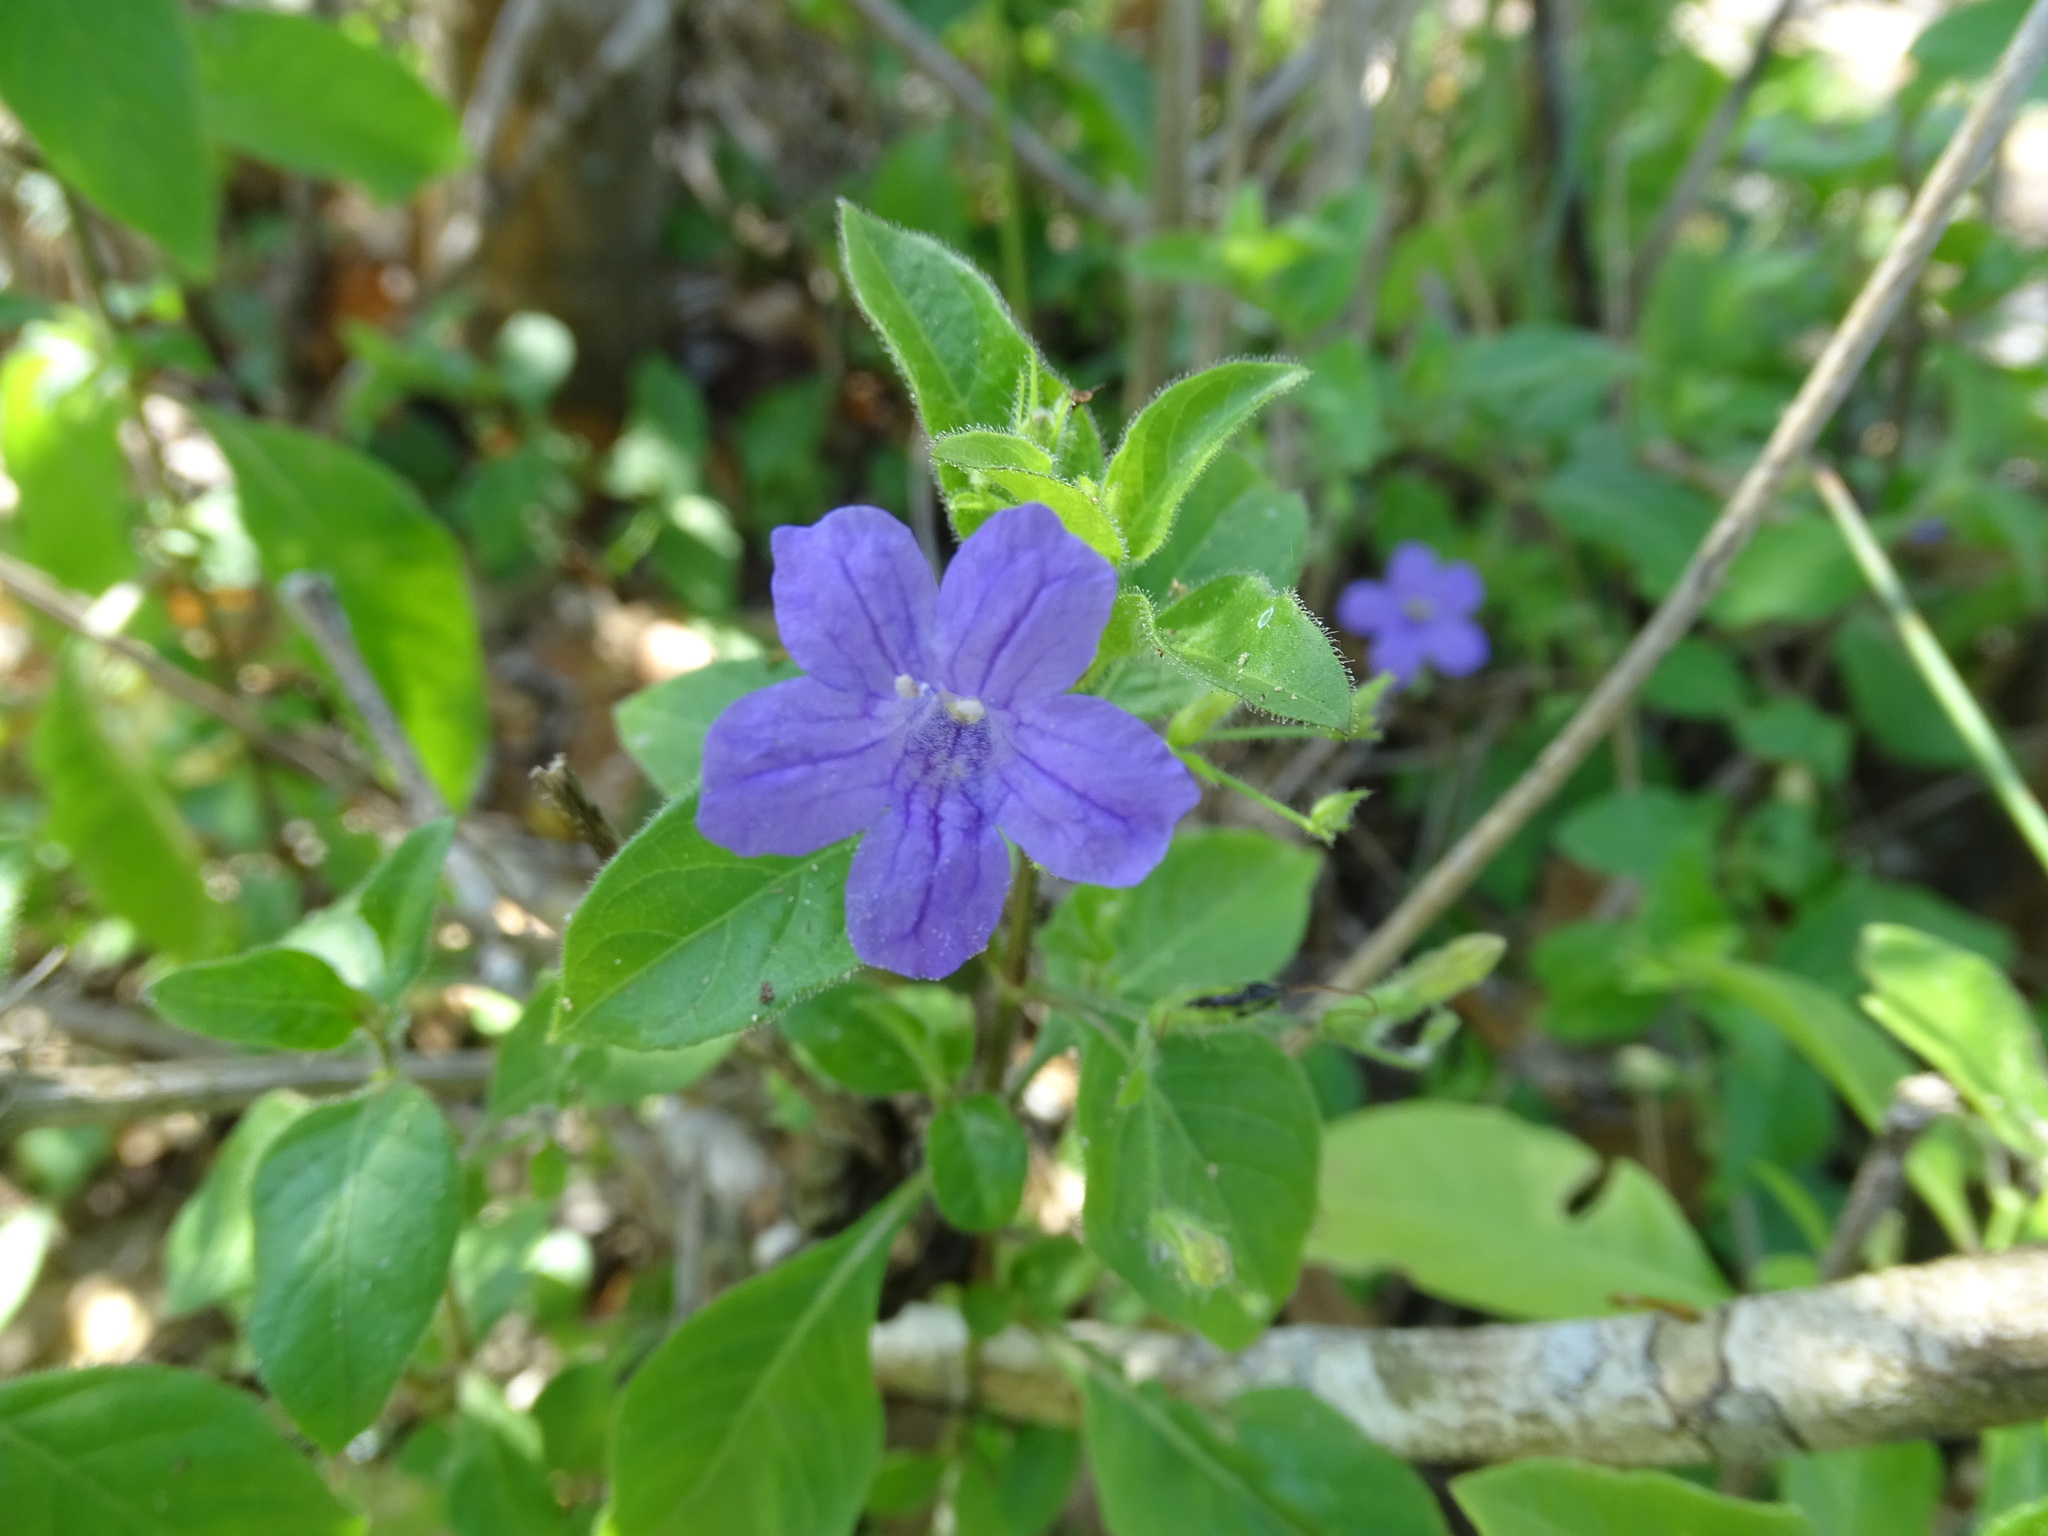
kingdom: Plantae
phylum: Tracheophyta
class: Magnoliopsida
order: Lamiales
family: Acanthaceae
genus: Ruellia
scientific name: Ruellia paniculata
